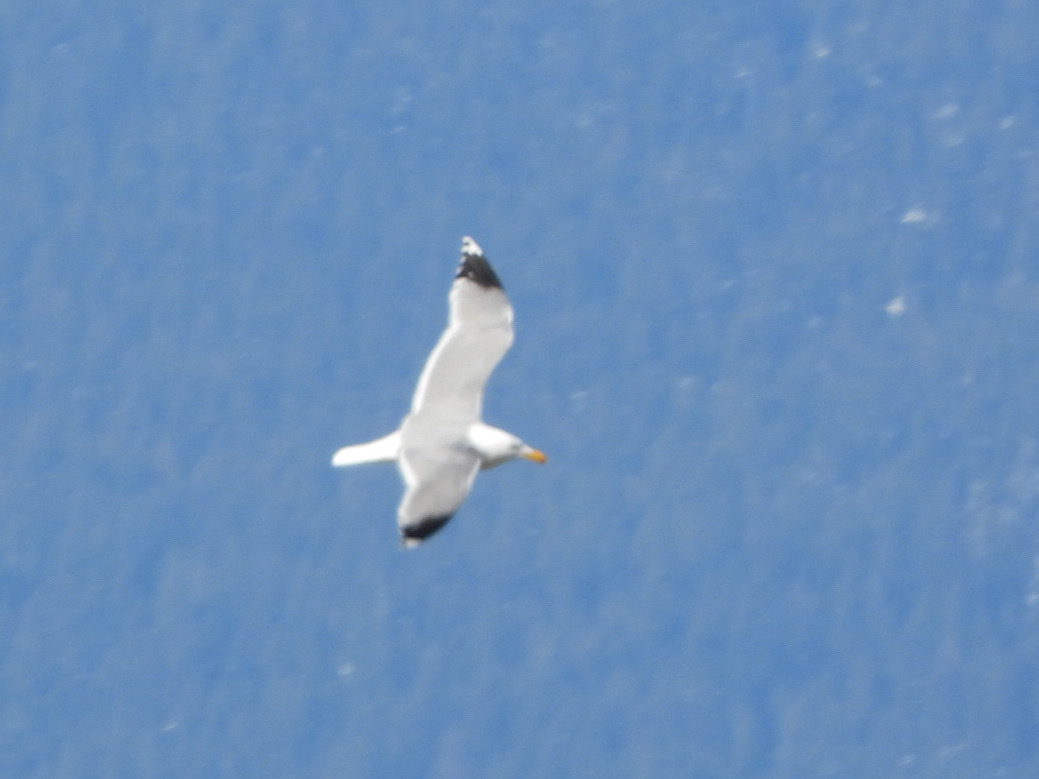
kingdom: Animalia
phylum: Chordata
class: Aves
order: Charadriiformes
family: Laridae
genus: Larus
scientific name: Larus californicus
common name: California gull
